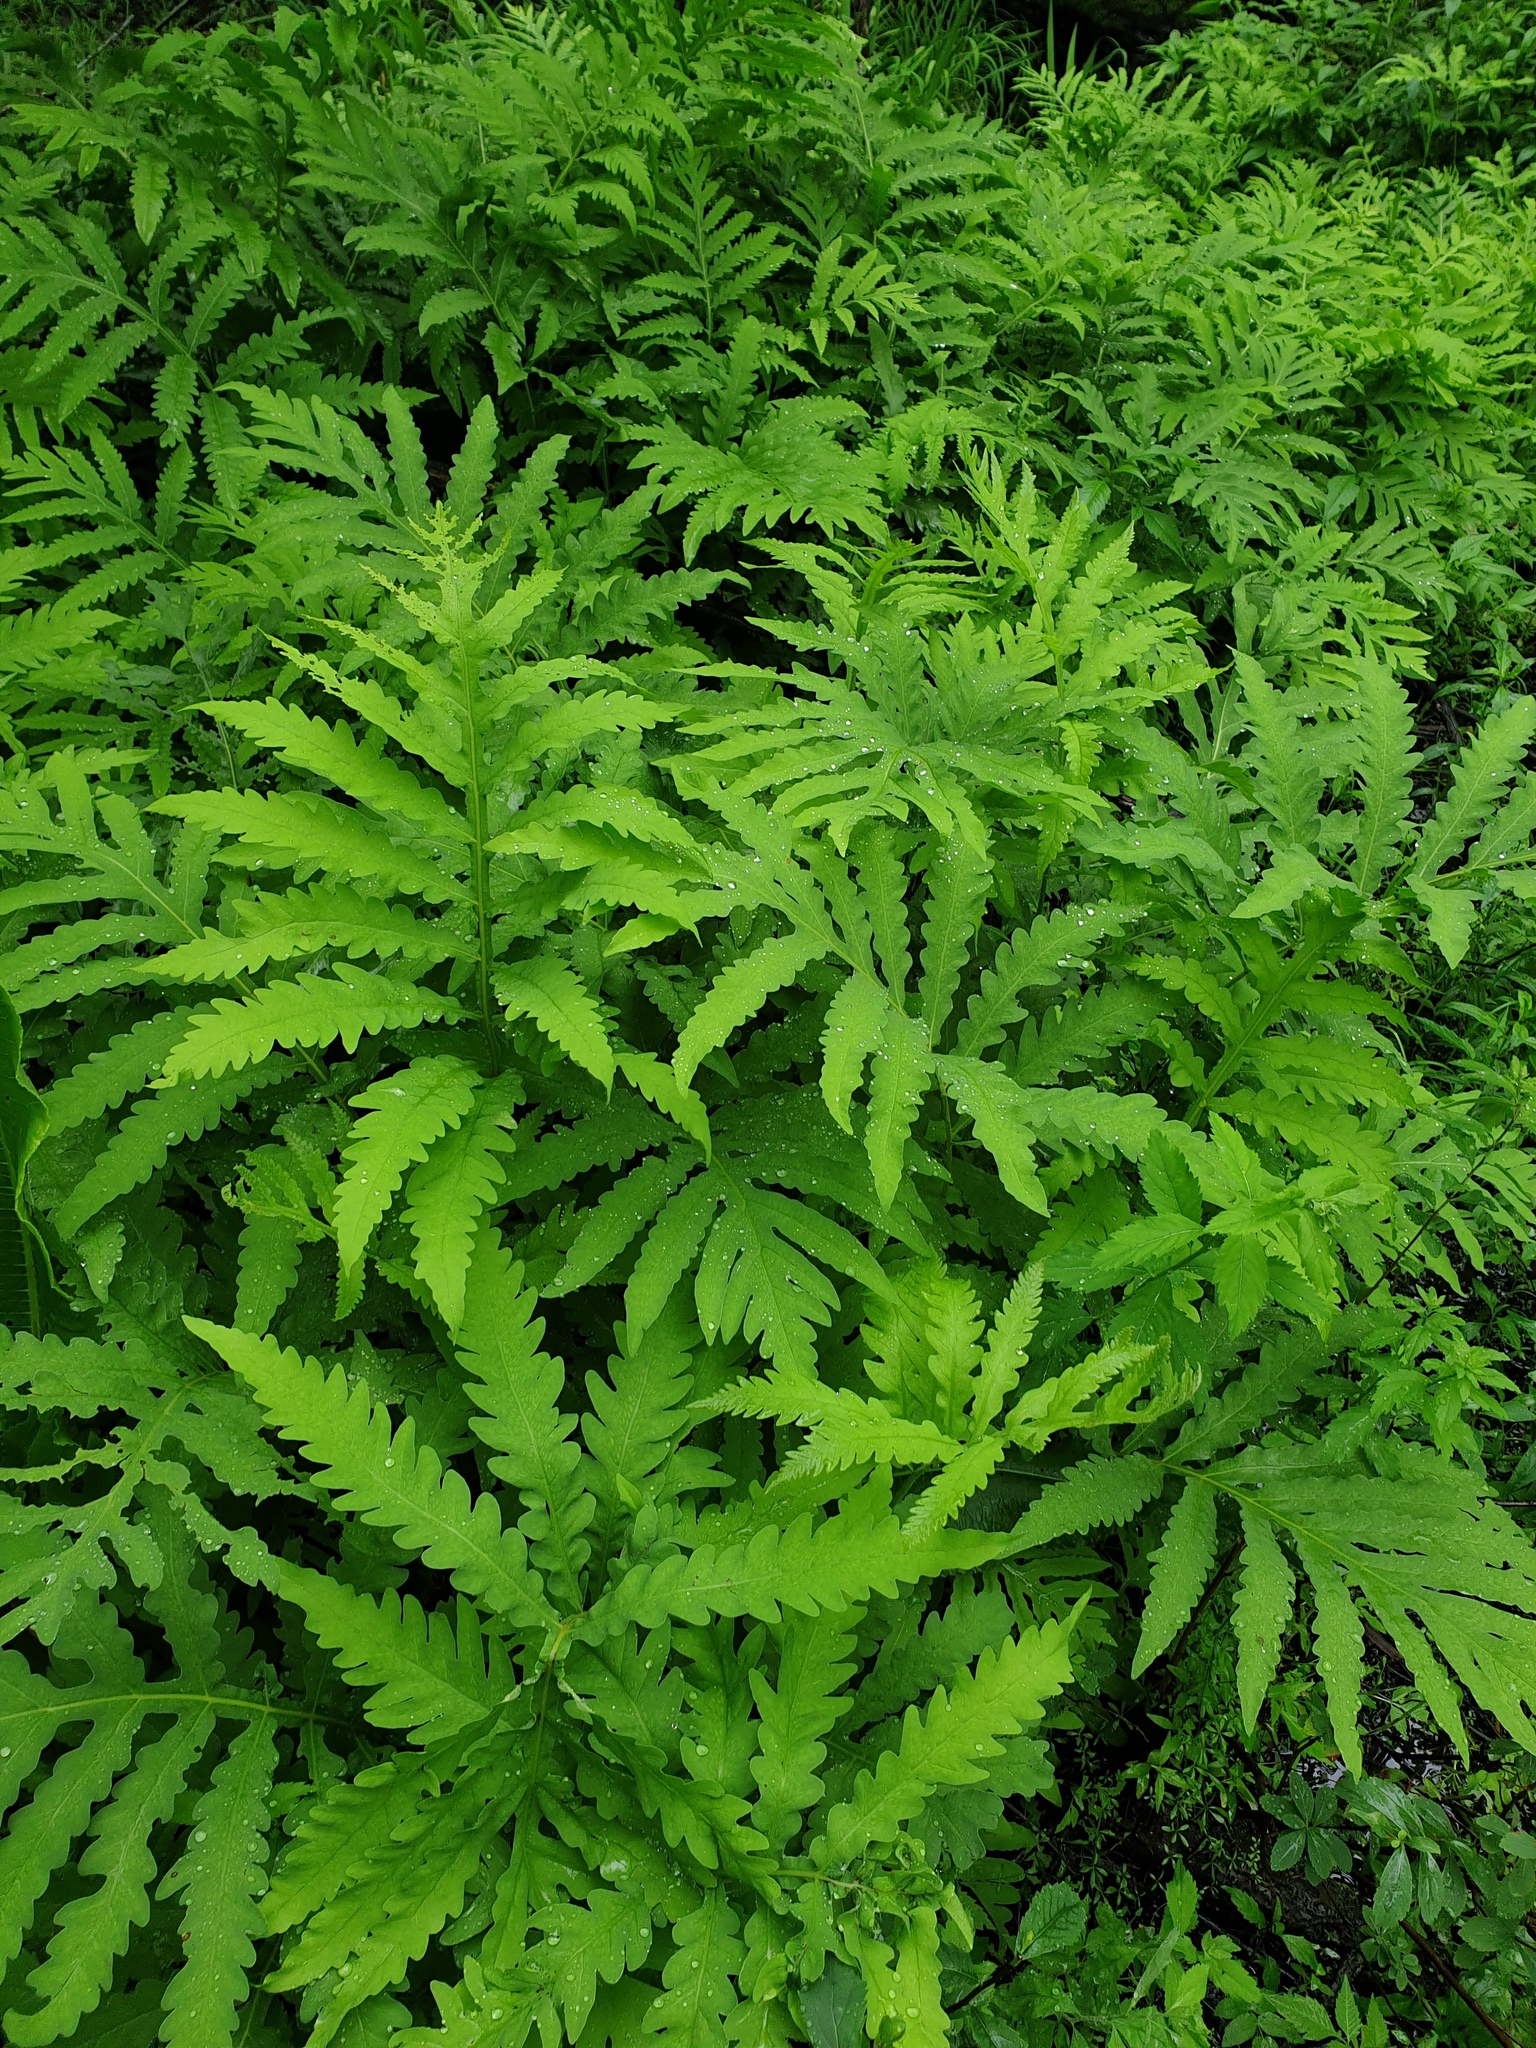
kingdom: Plantae
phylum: Tracheophyta
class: Polypodiopsida
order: Polypodiales
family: Onocleaceae
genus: Onoclea
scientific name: Onoclea sensibilis
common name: Sensitive fern
